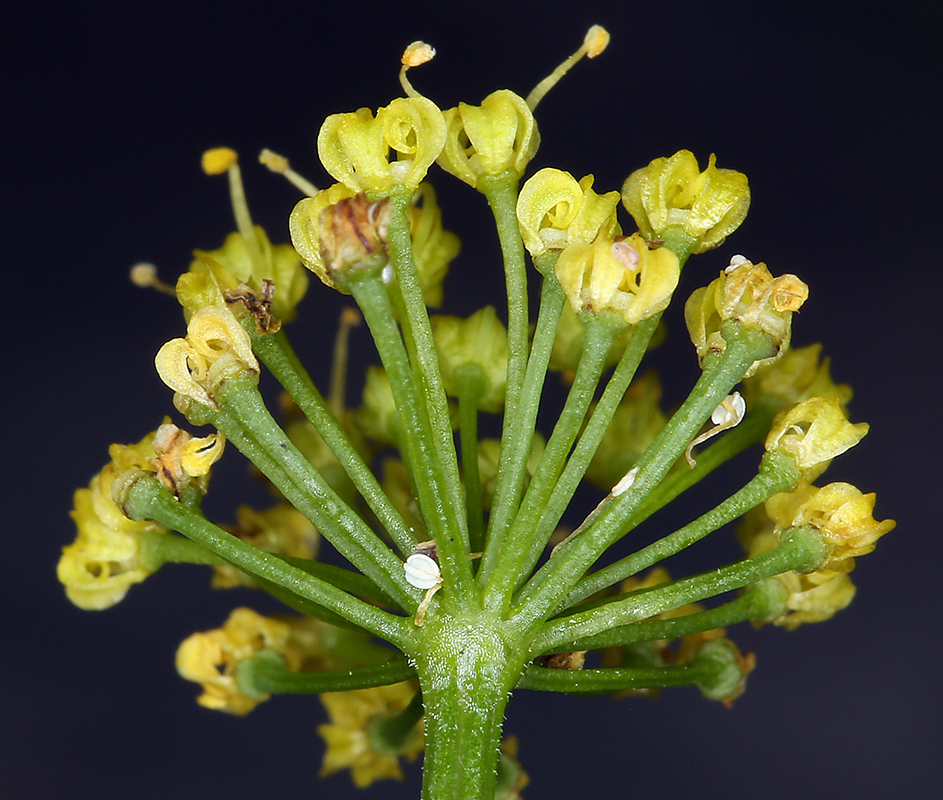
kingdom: Plantae
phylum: Tracheophyta
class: Magnoliopsida
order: Apiales
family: Apiaceae
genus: Lomatium
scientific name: Lomatium triternatum
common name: Ternate lomatium
